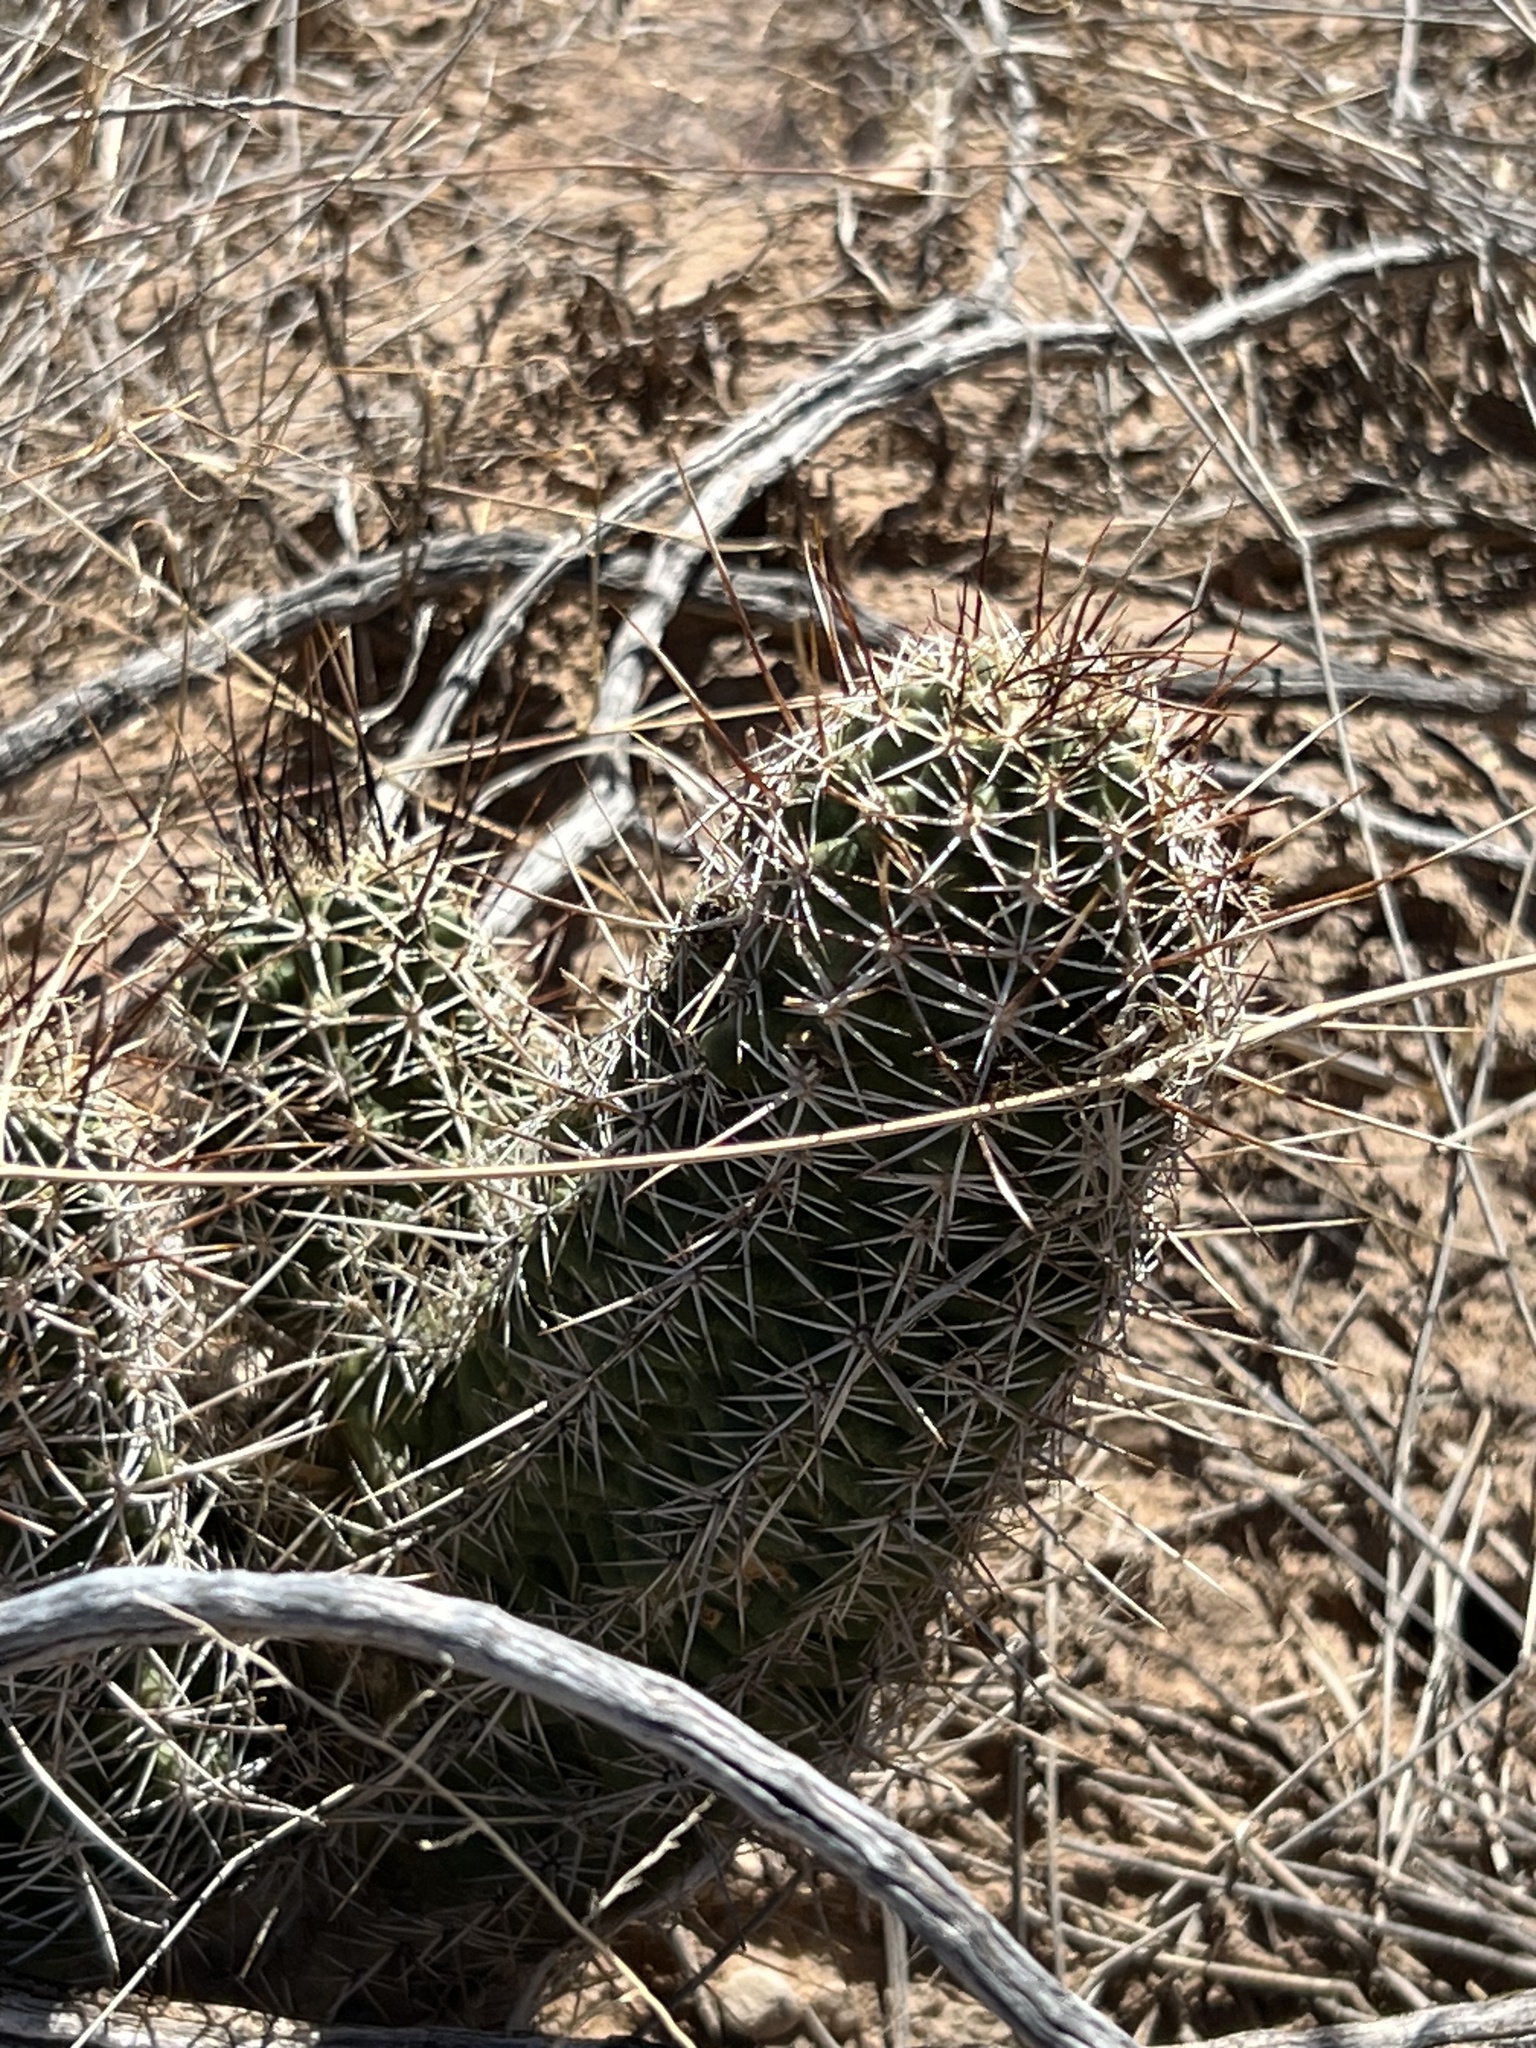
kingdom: Plantae
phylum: Tracheophyta
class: Magnoliopsida
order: Caryophyllales
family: Cactaceae
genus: Echinocereus
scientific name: Echinocereus fendleri
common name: Fendler's hedgehog cactus
